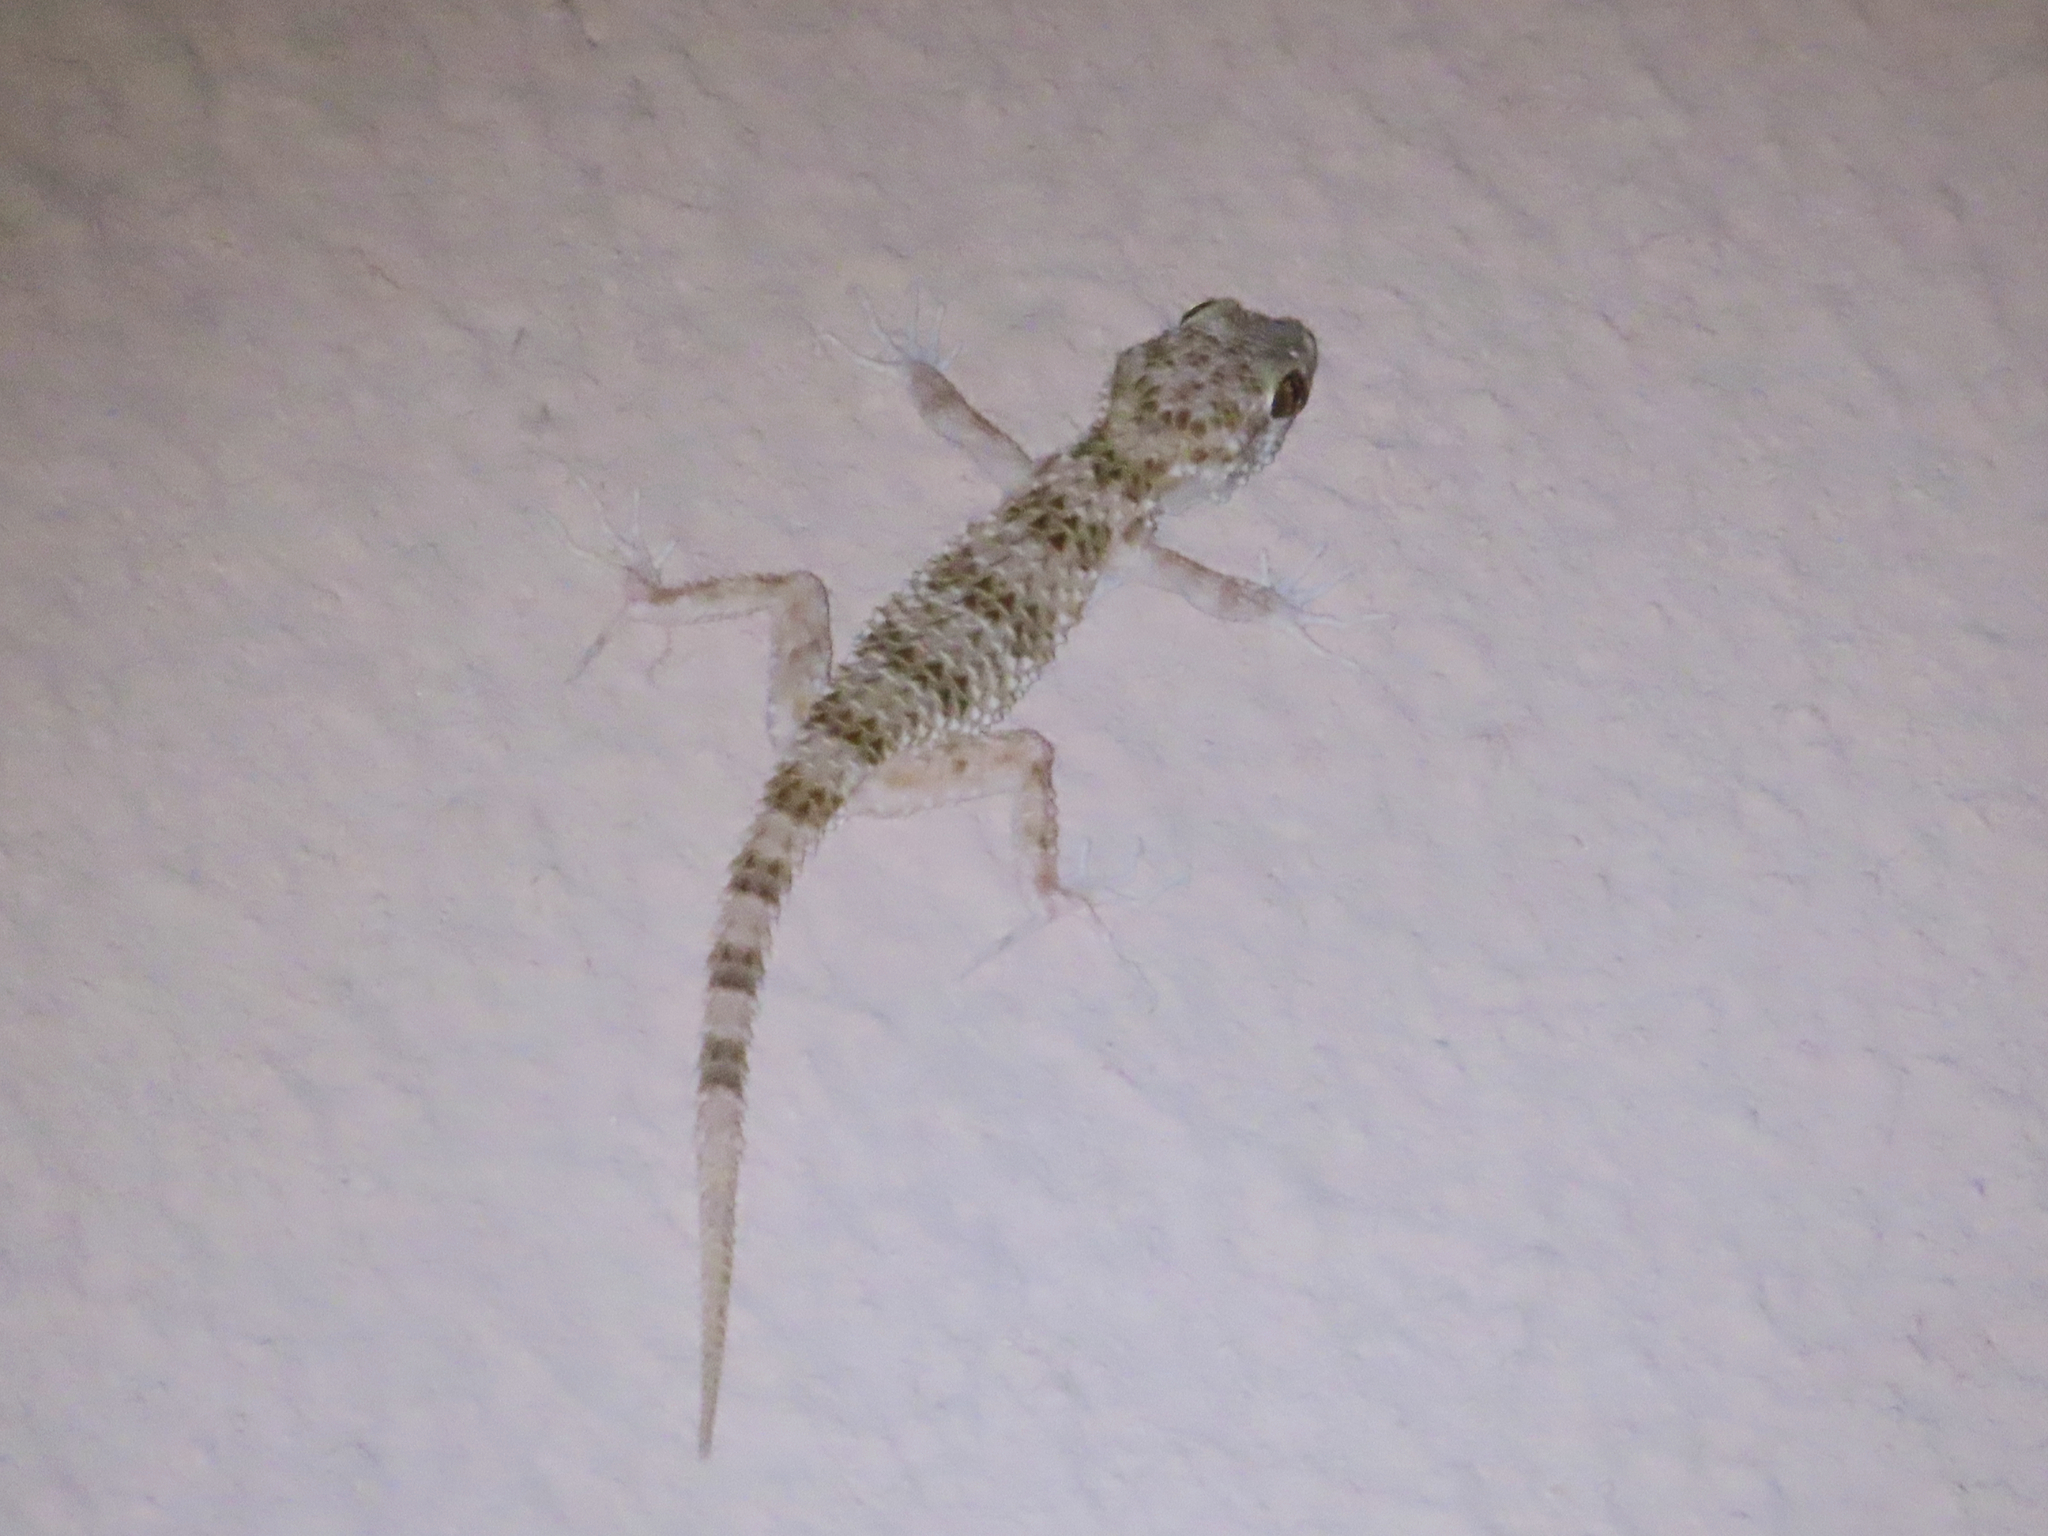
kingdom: Animalia
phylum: Chordata
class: Squamata
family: Gekkonidae
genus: Tenuidactylus
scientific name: Tenuidactylus caspius
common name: Caspian bent-toed gecko
